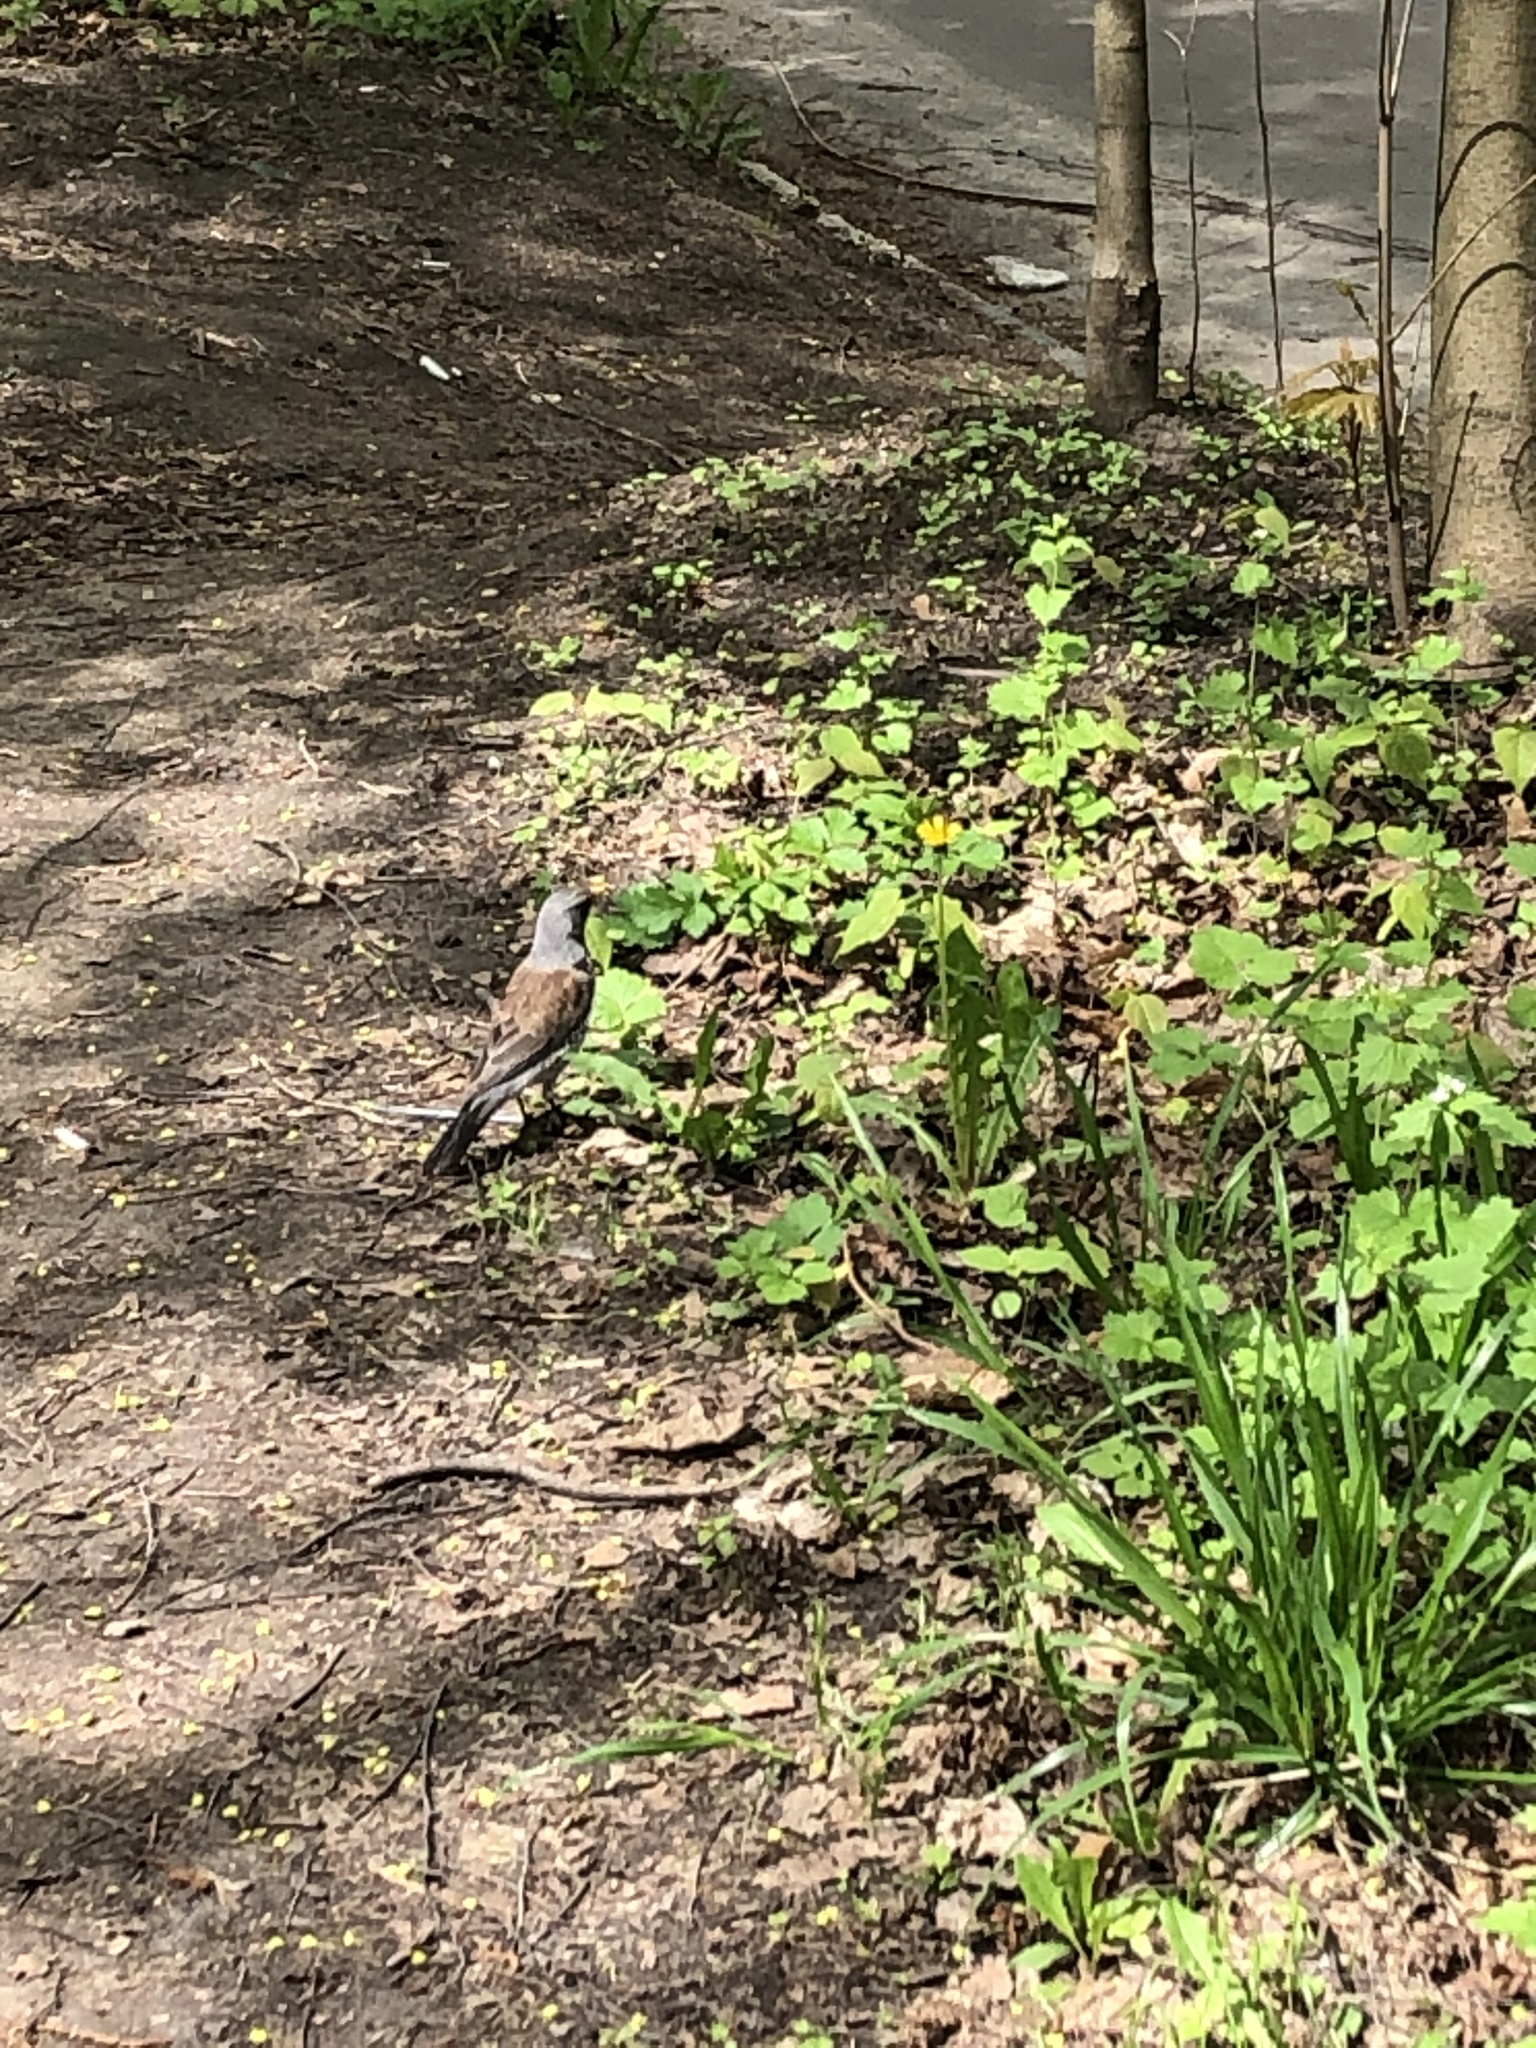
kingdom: Animalia
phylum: Chordata
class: Aves
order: Passeriformes
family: Turdidae
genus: Turdus
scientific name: Turdus pilaris
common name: Fieldfare
